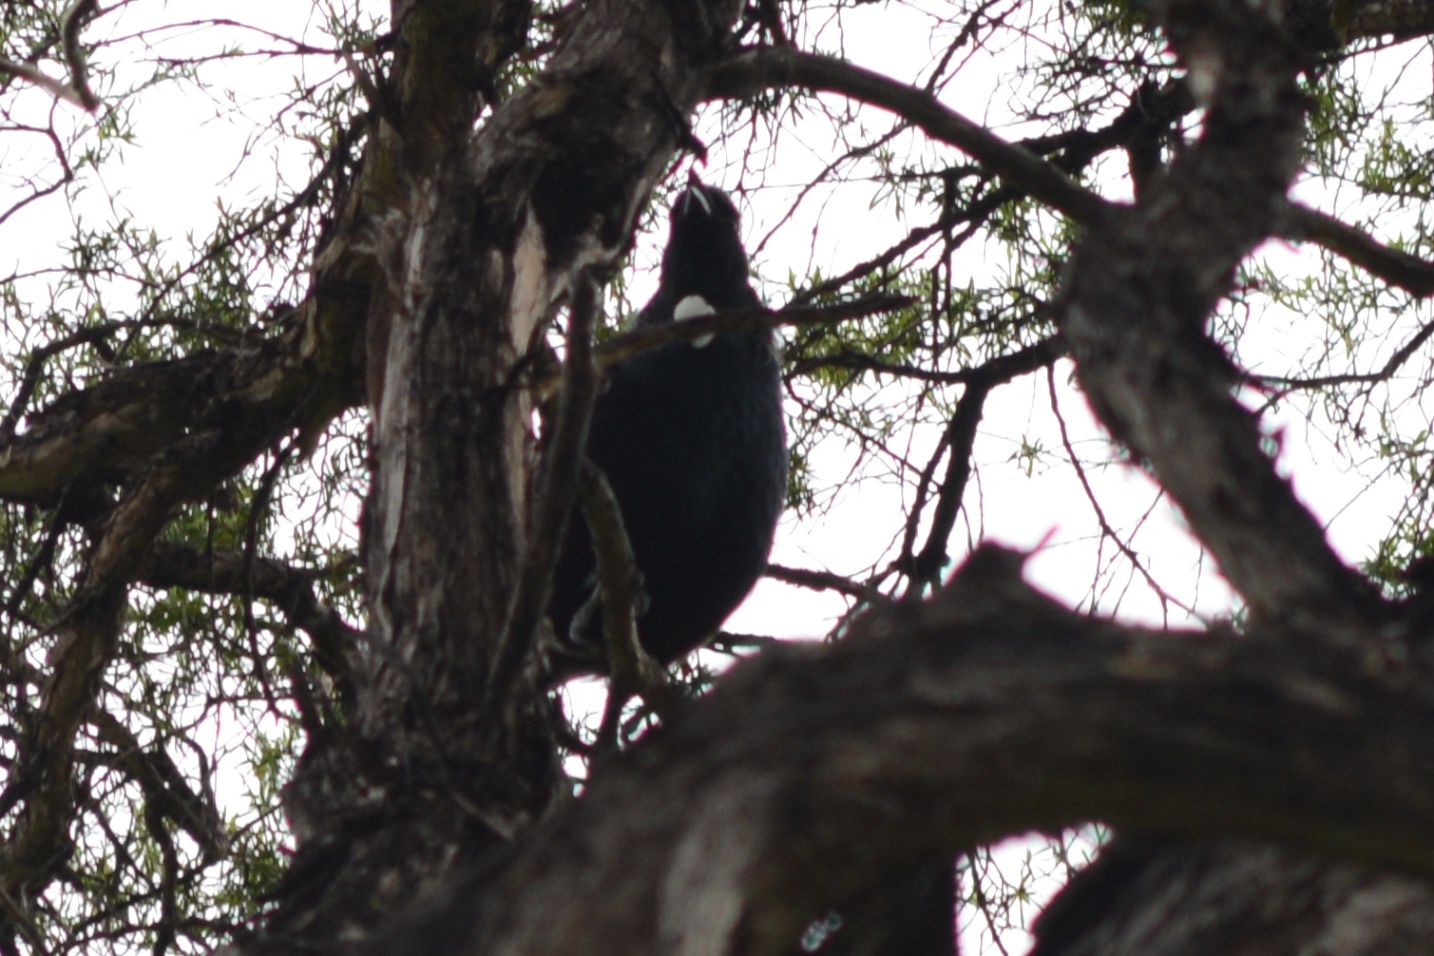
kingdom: Animalia
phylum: Chordata
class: Aves
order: Passeriformes
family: Meliphagidae
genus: Prosthemadera
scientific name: Prosthemadera novaeseelandiae
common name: Tui
